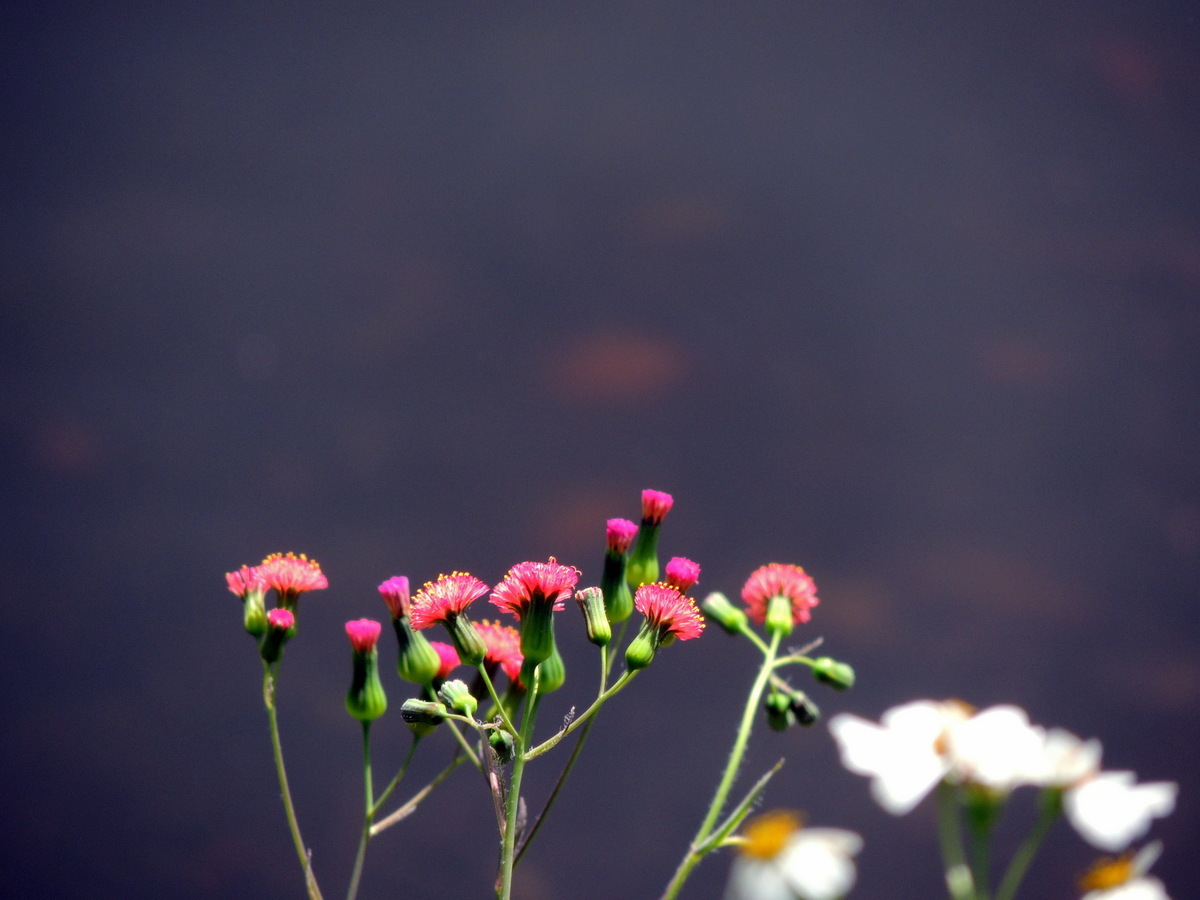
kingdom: Plantae
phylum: Tracheophyta
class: Magnoliopsida
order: Asterales
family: Asteraceae
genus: Emilia
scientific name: Emilia fosbergii
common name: Florida tasselflower
